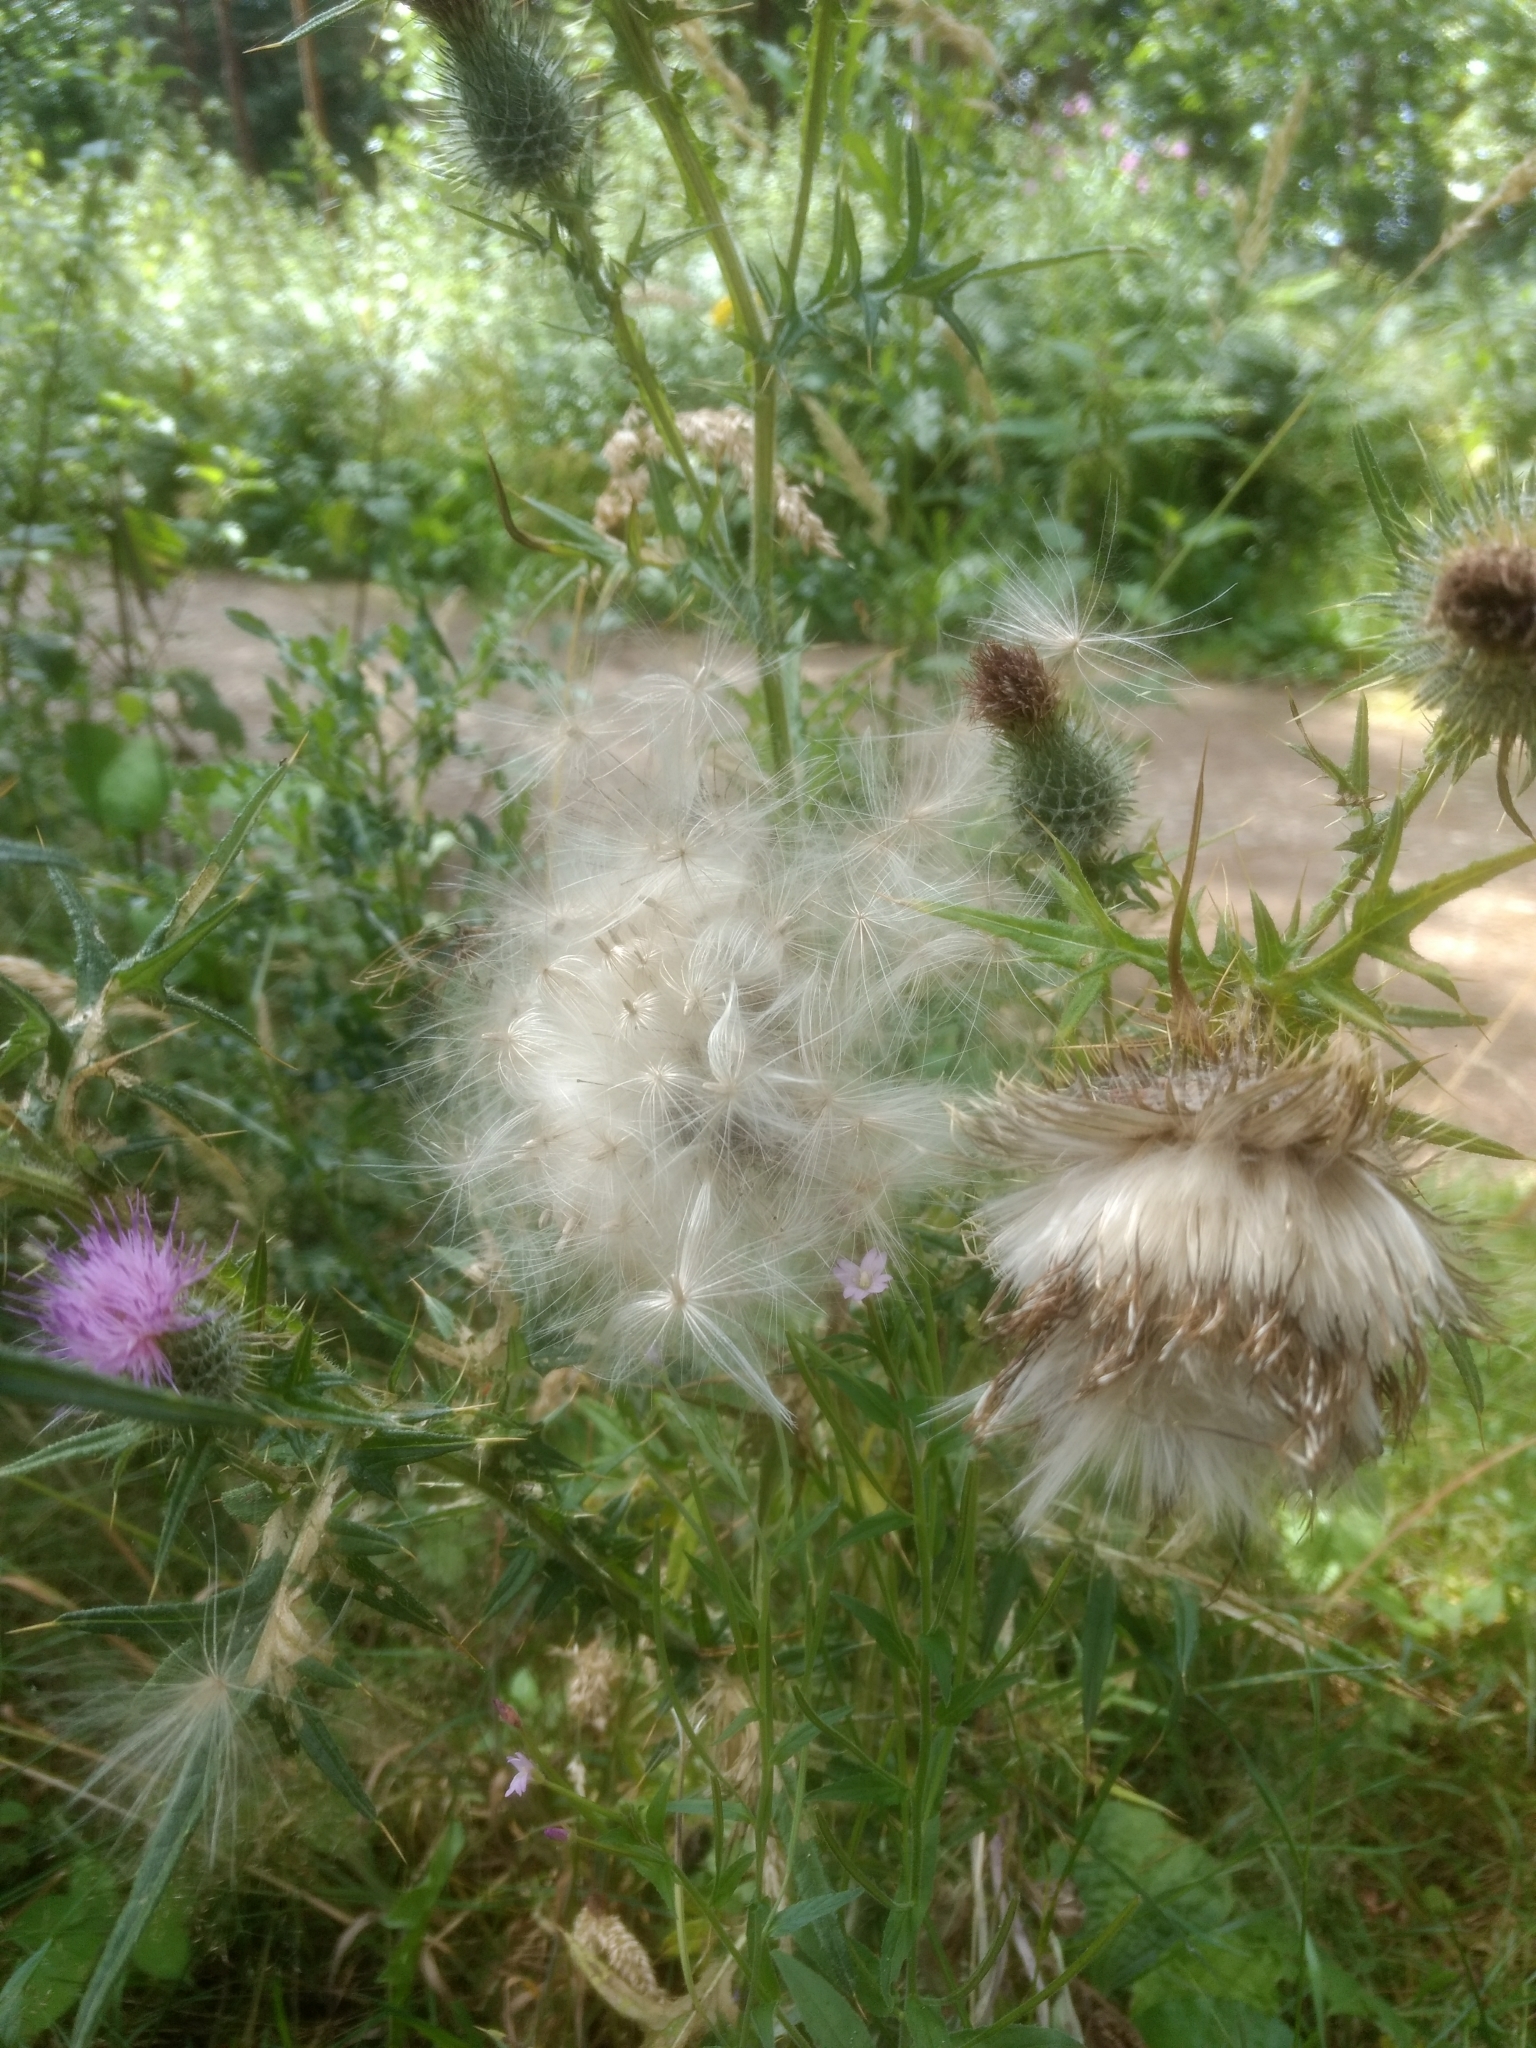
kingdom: Plantae
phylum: Tracheophyta
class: Magnoliopsida
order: Asterales
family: Asteraceae
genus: Cirsium
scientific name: Cirsium vulgare
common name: Bull thistle
